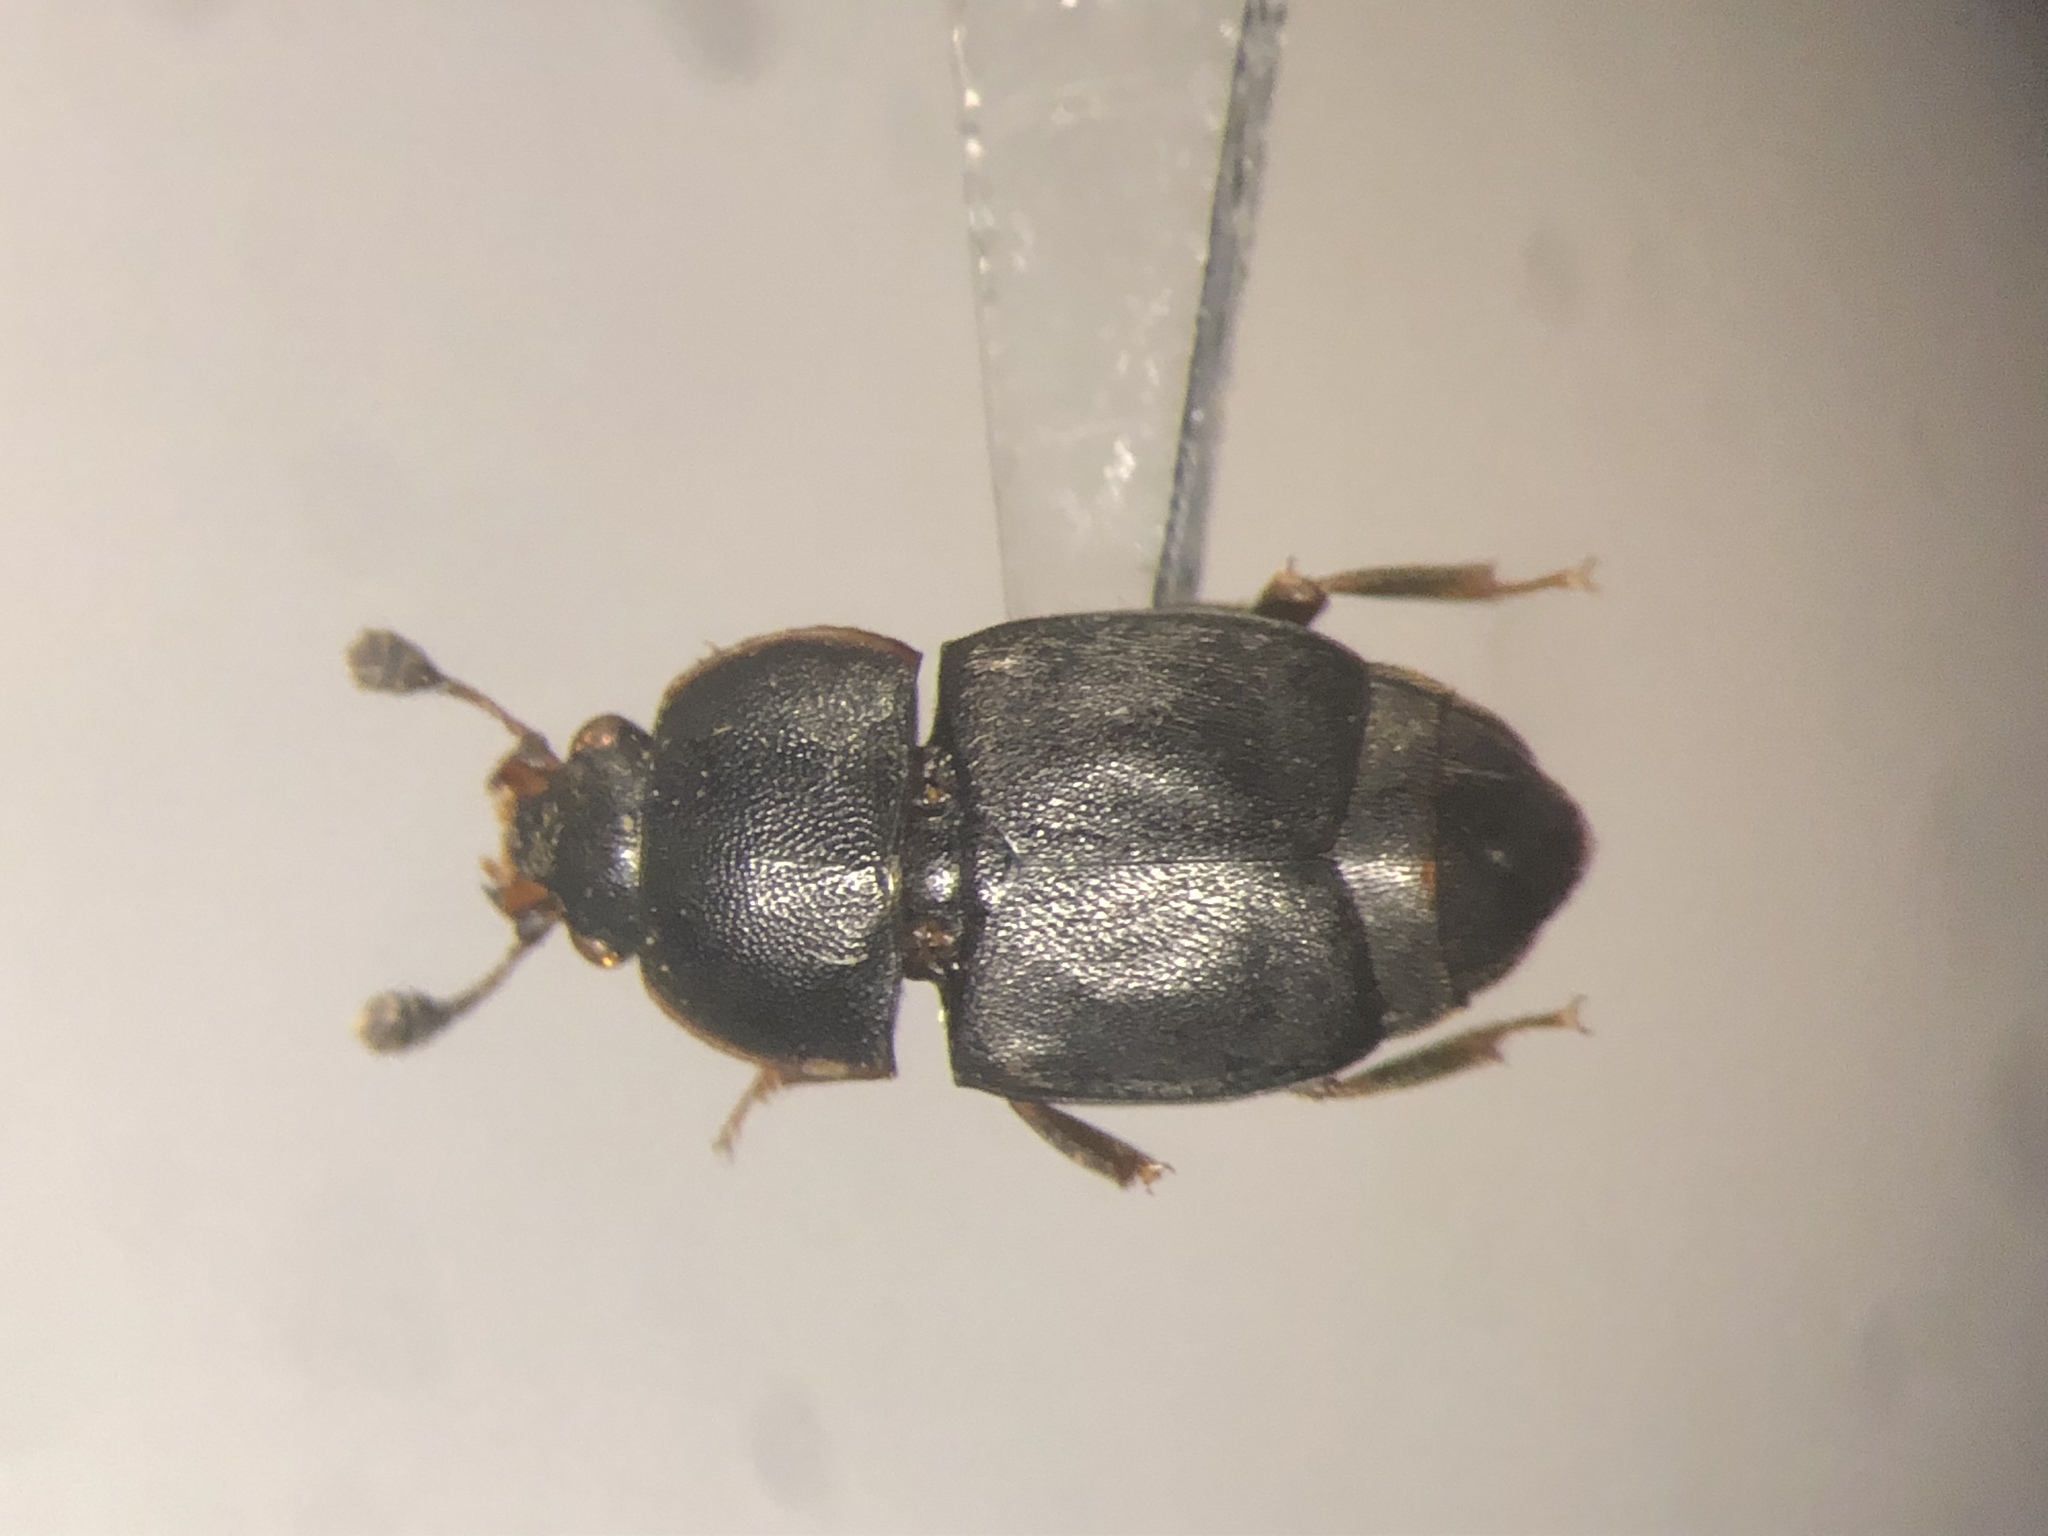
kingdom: Animalia
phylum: Arthropoda
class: Insecta
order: Coleoptera
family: Nitidulidae
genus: Carpophilus
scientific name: Carpophilus
